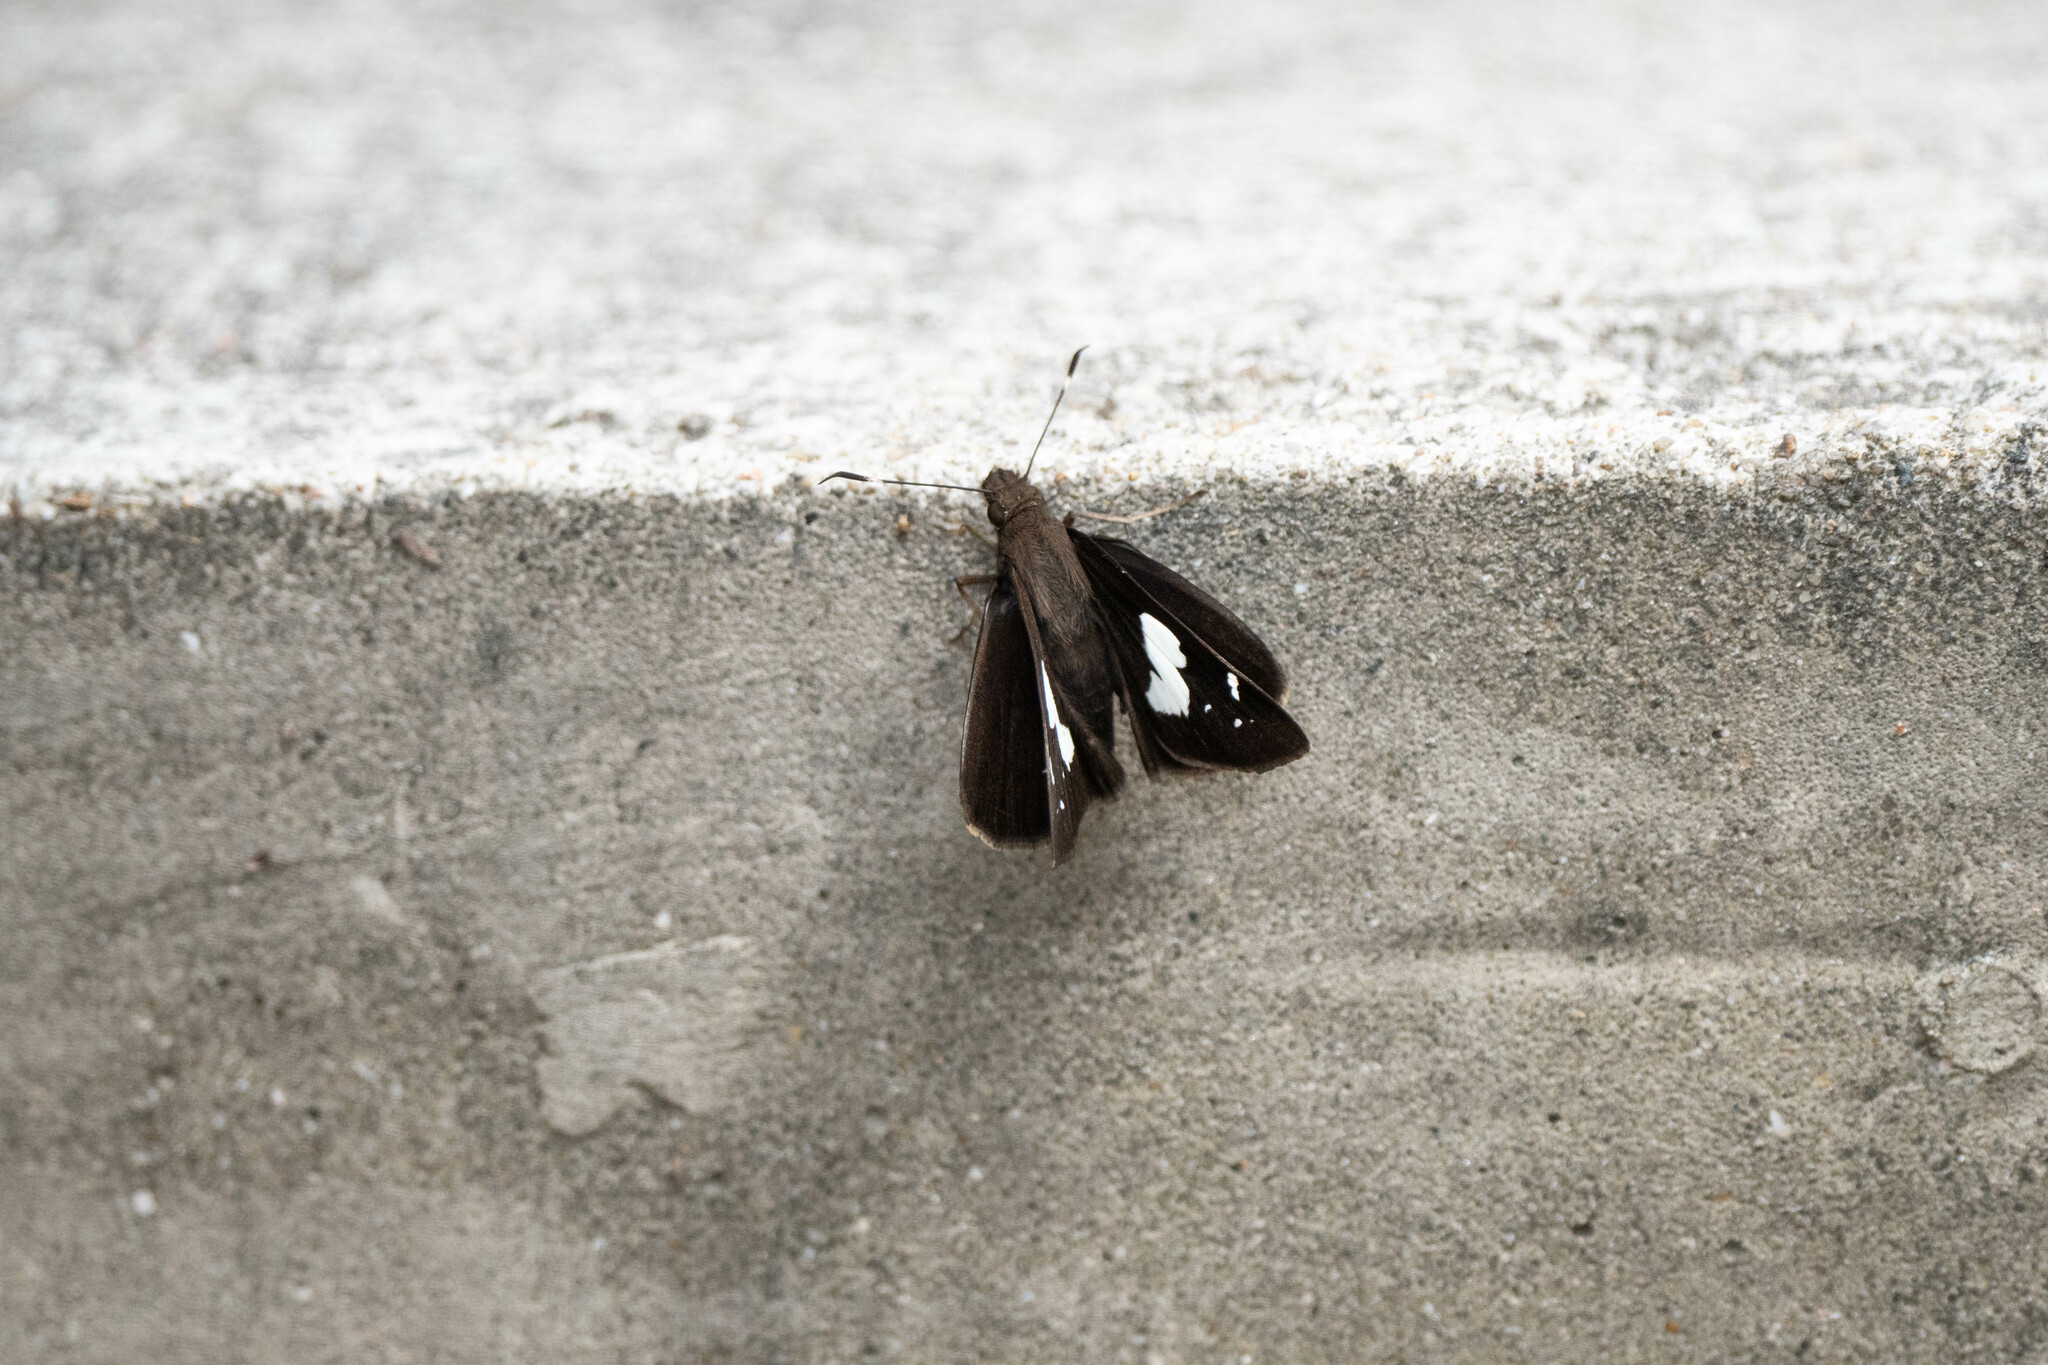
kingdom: Animalia
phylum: Arthropoda
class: Insecta
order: Lepidoptera
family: Hesperiidae
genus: Notocrypta
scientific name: Notocrypta curvifascia
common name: Restricted demon
